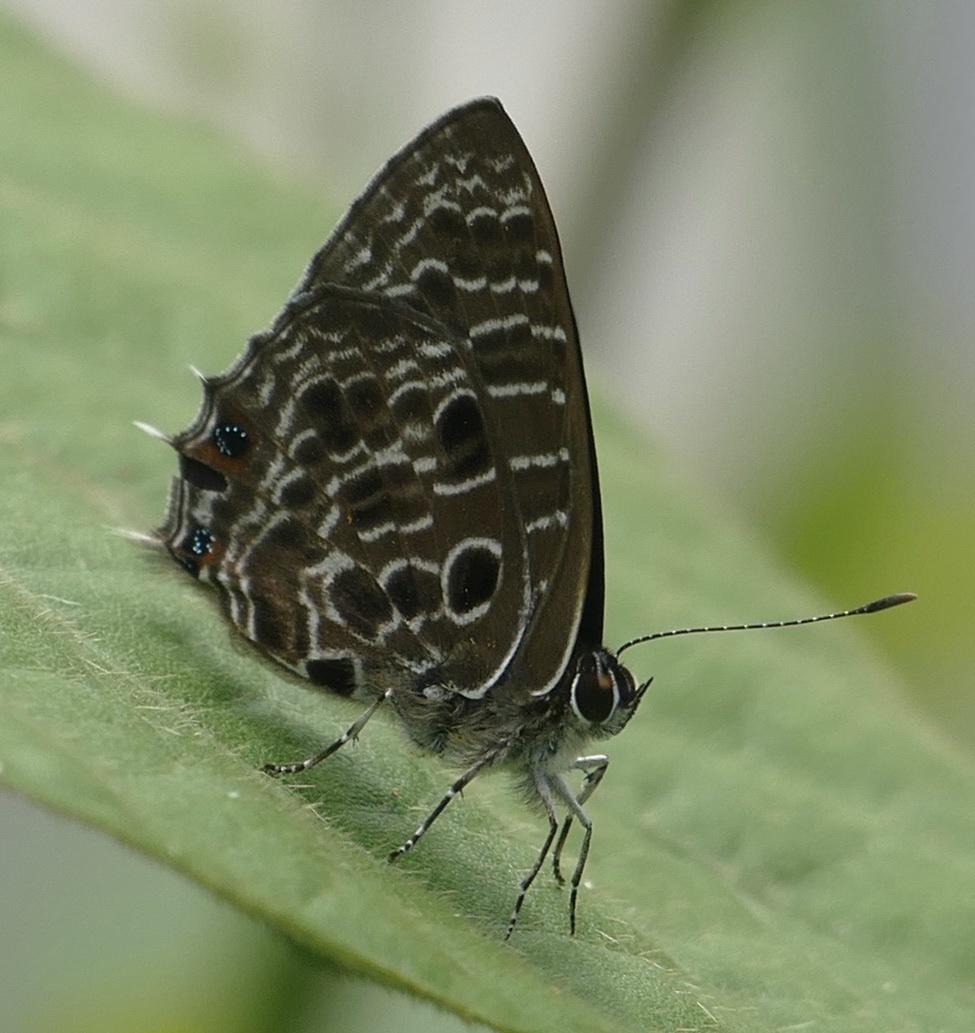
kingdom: Animalia
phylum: Arthropoda
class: Insecta
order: Lepidoptera
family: Lycaenidae
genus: Anthene
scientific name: Anthene larydas
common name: Forest hairtail
